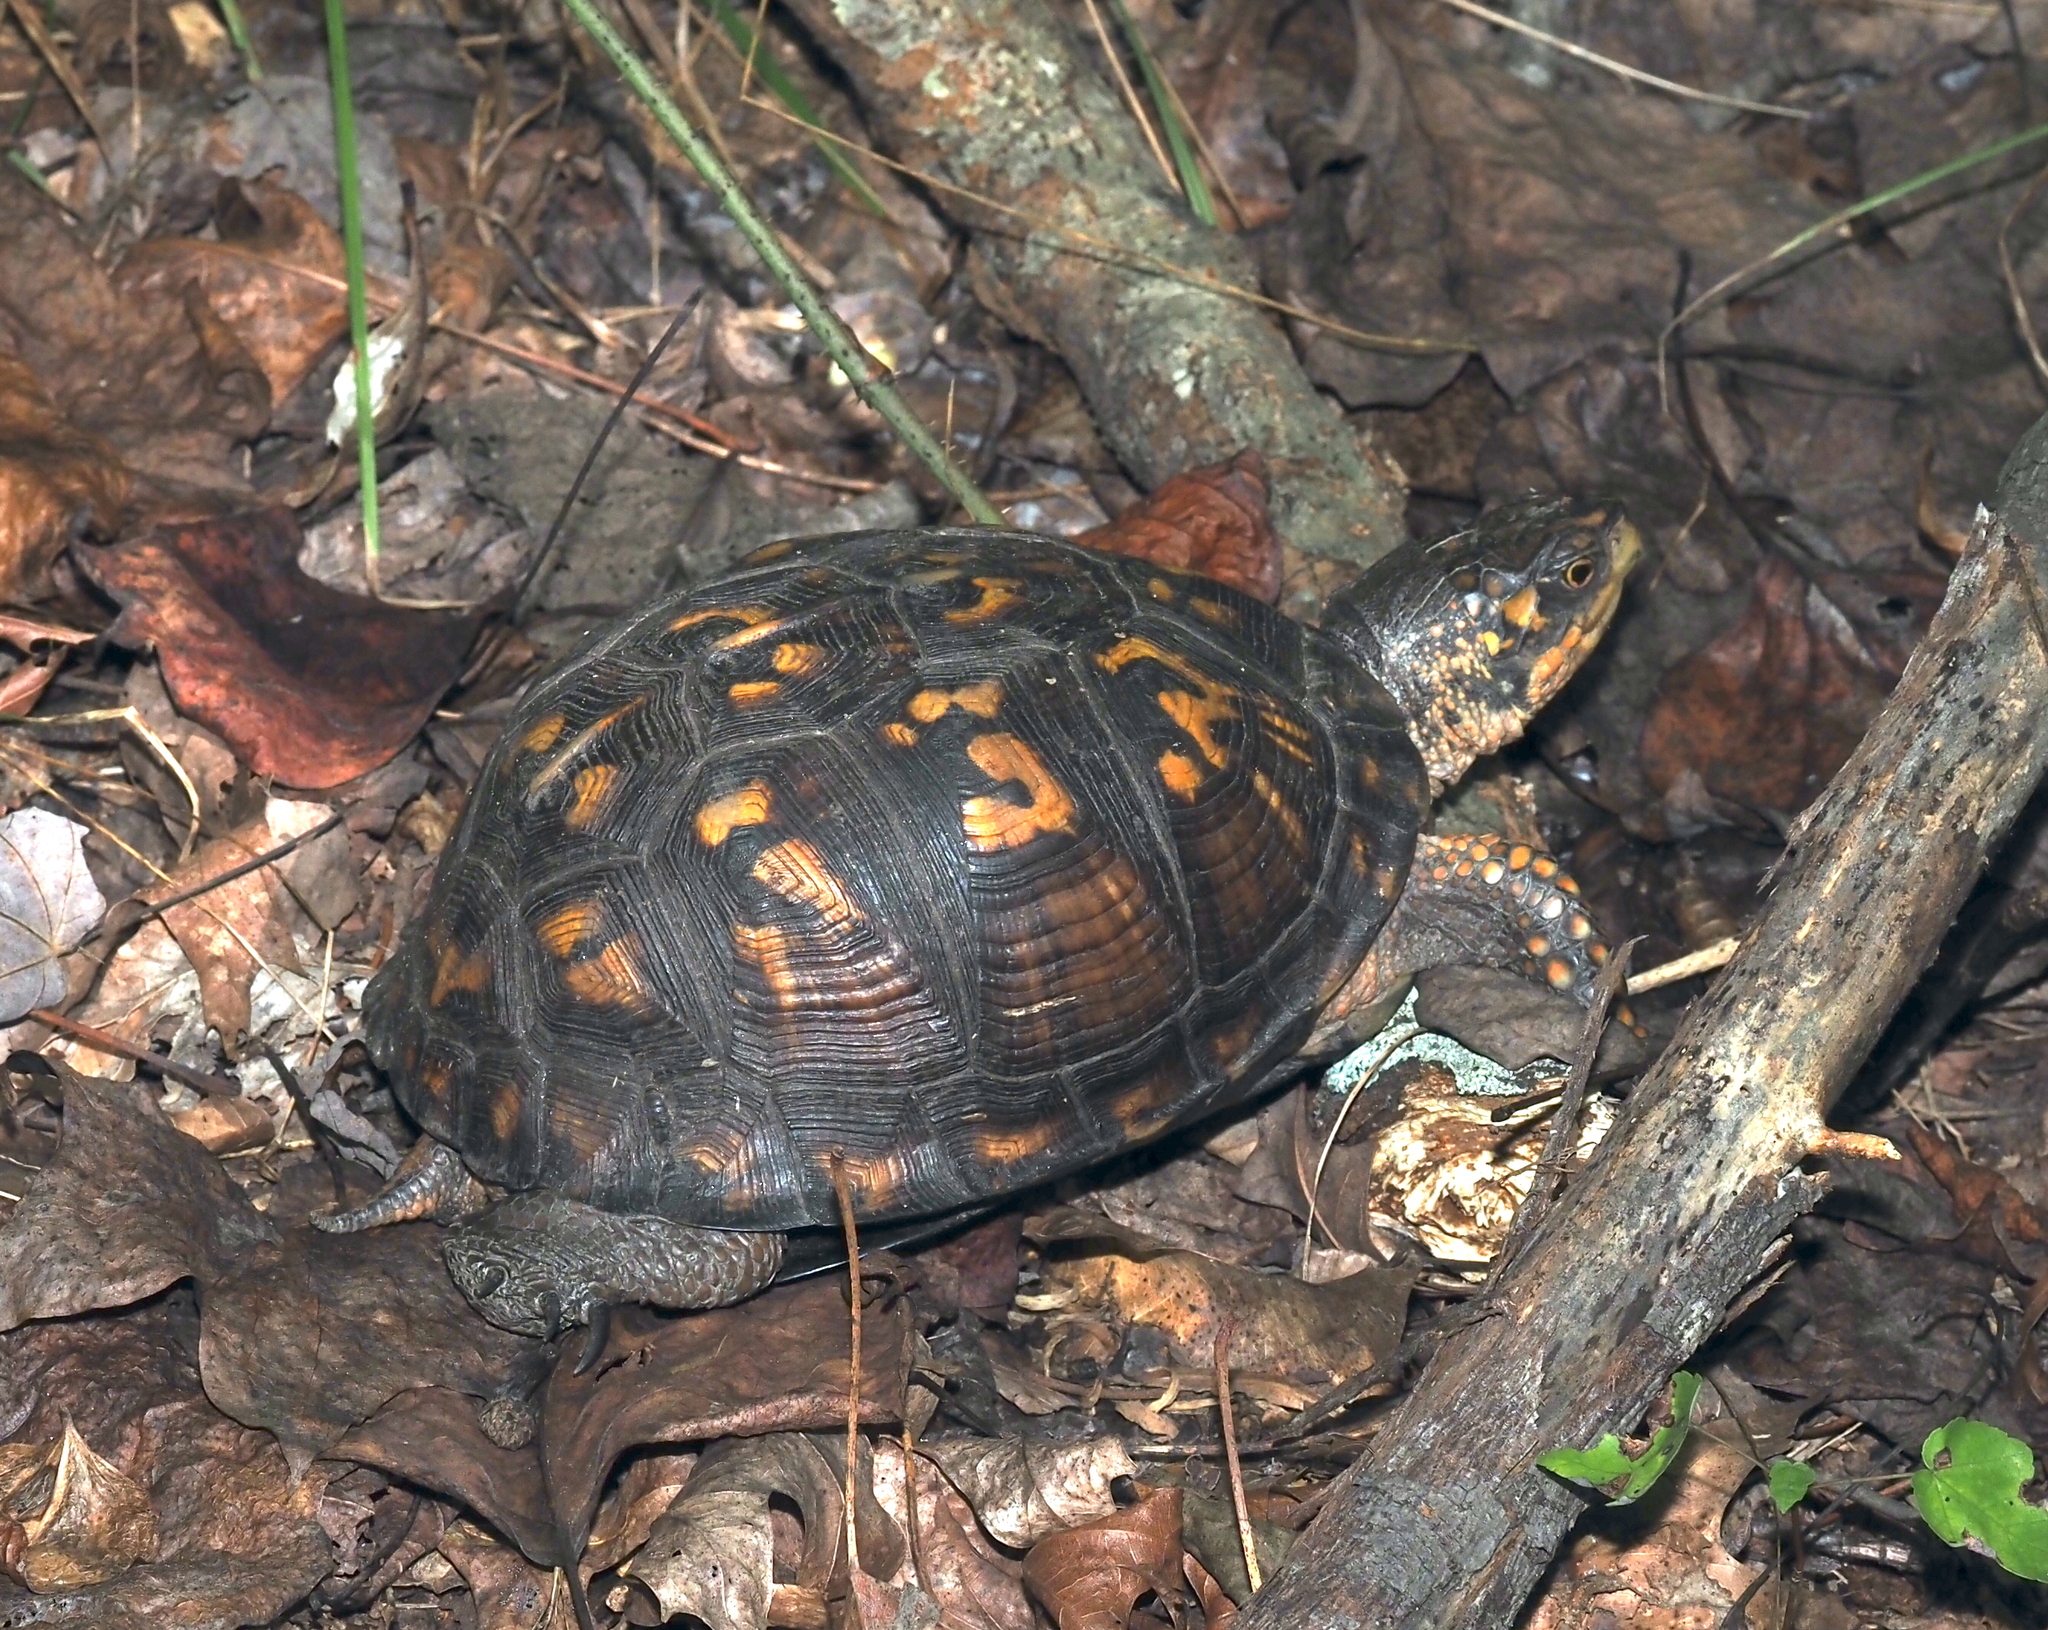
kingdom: Animalia
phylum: Chordata
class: Testudines
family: Emydidae
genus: Terrapene
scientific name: Terrapene carolina
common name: Common box turtle
